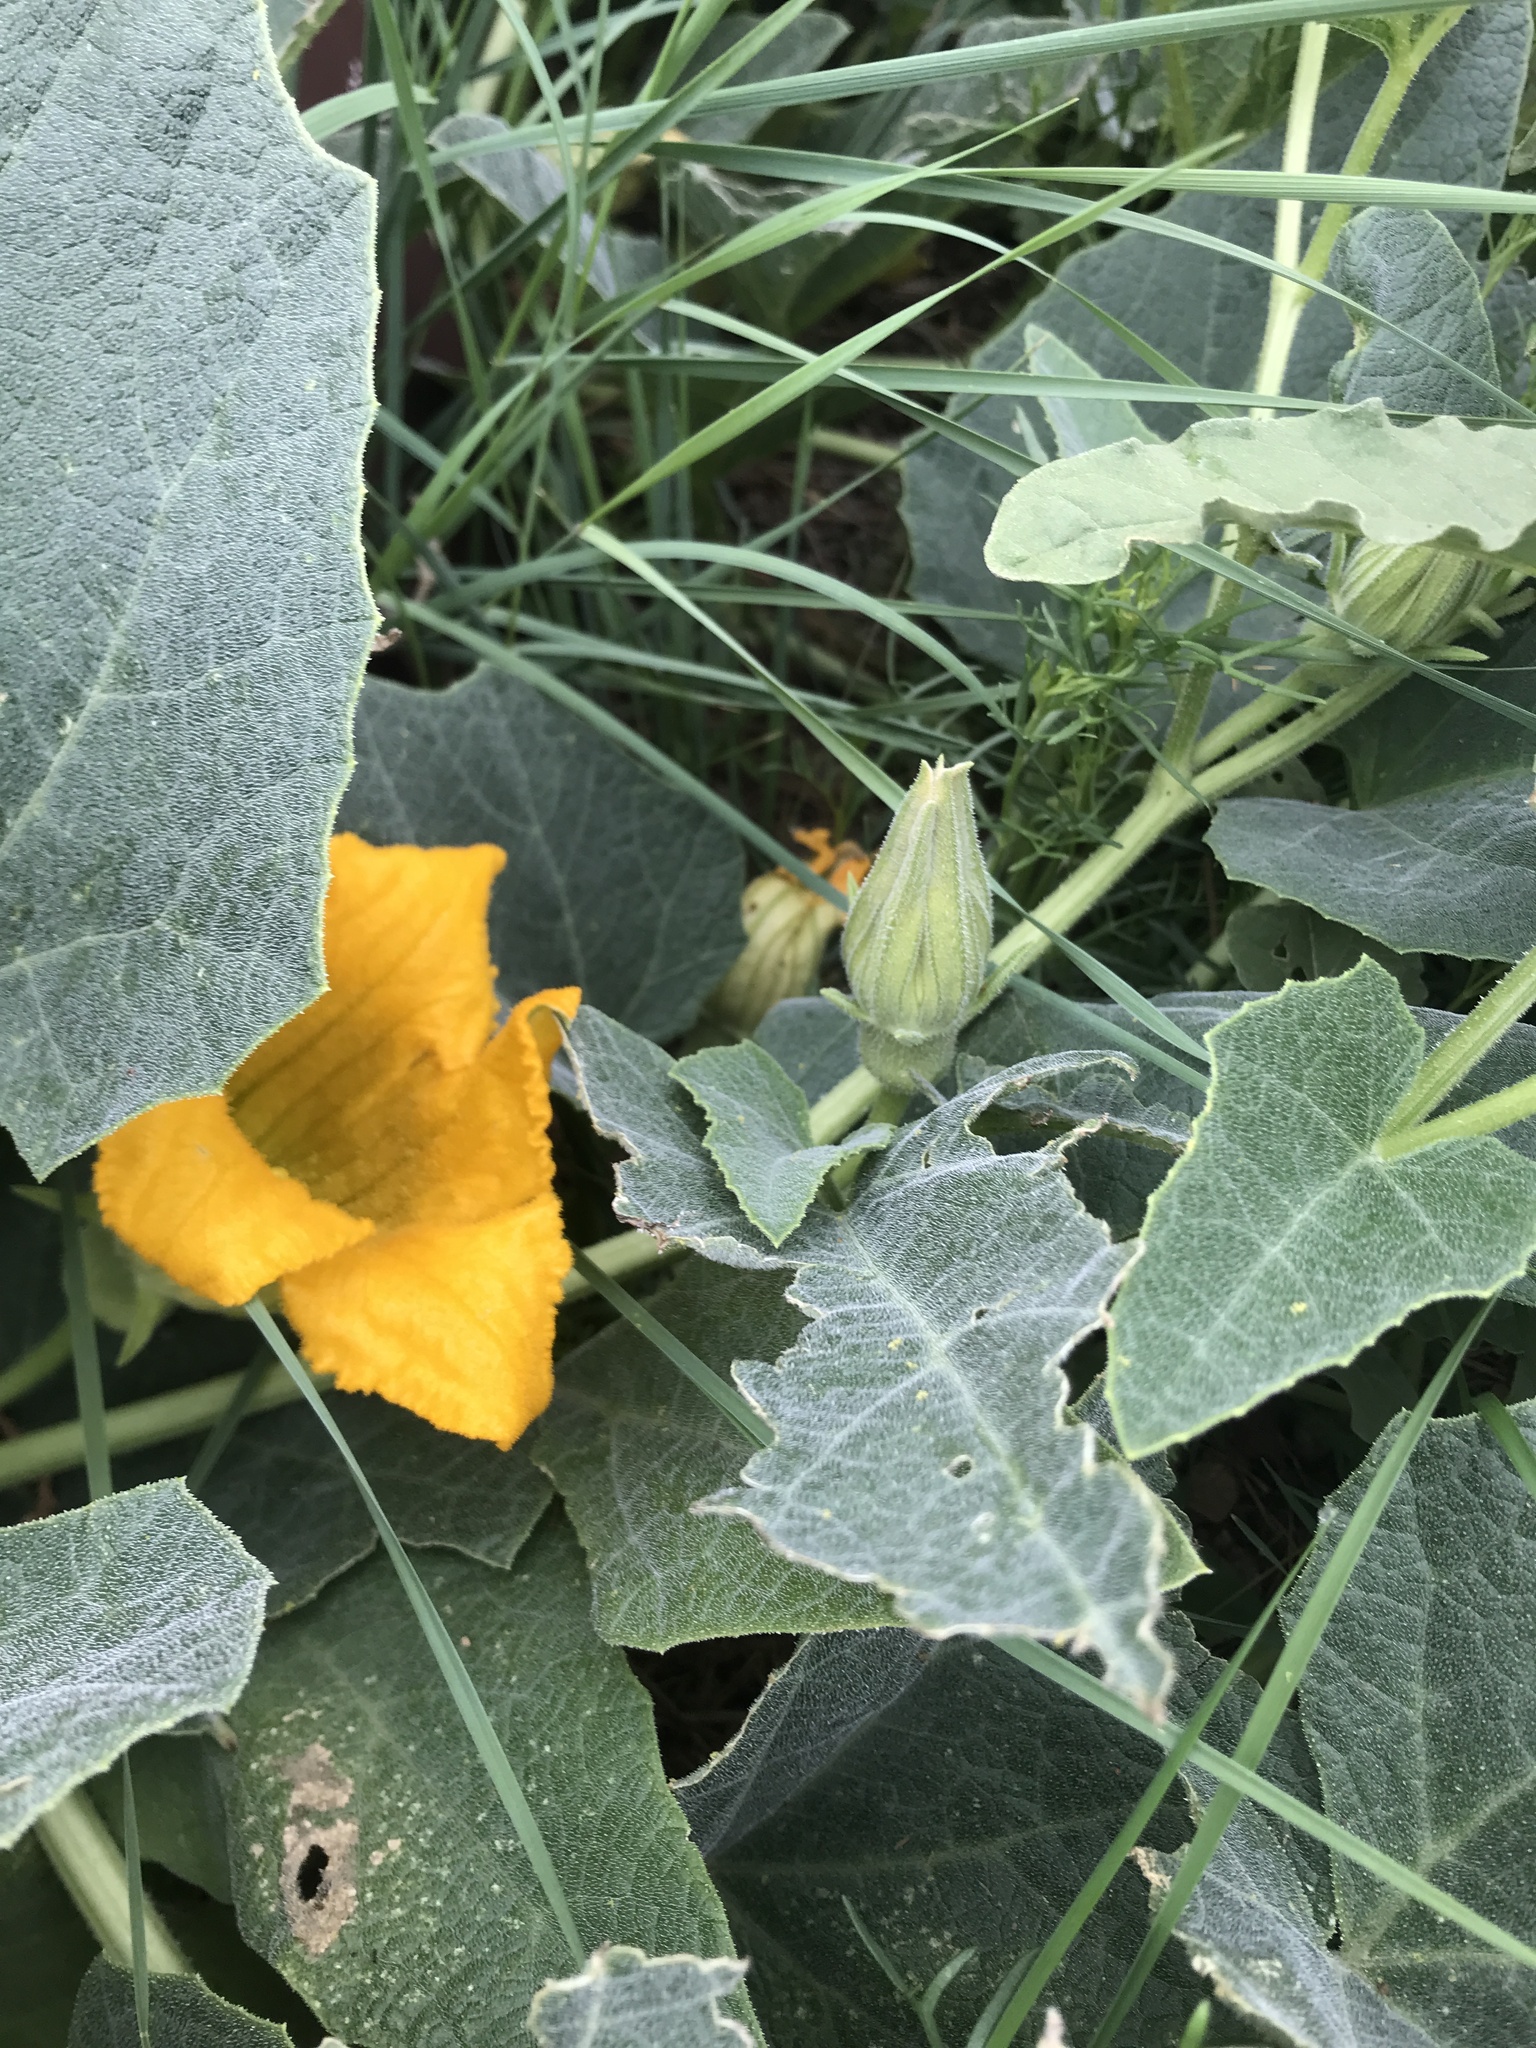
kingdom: Plantae
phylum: Tracheophyta
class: Magnoliopsida
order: Cucurbitales
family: Cucurbitaceae
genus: Cucurbita
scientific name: Cucurbita foetidissima
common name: Buffalo gourd
